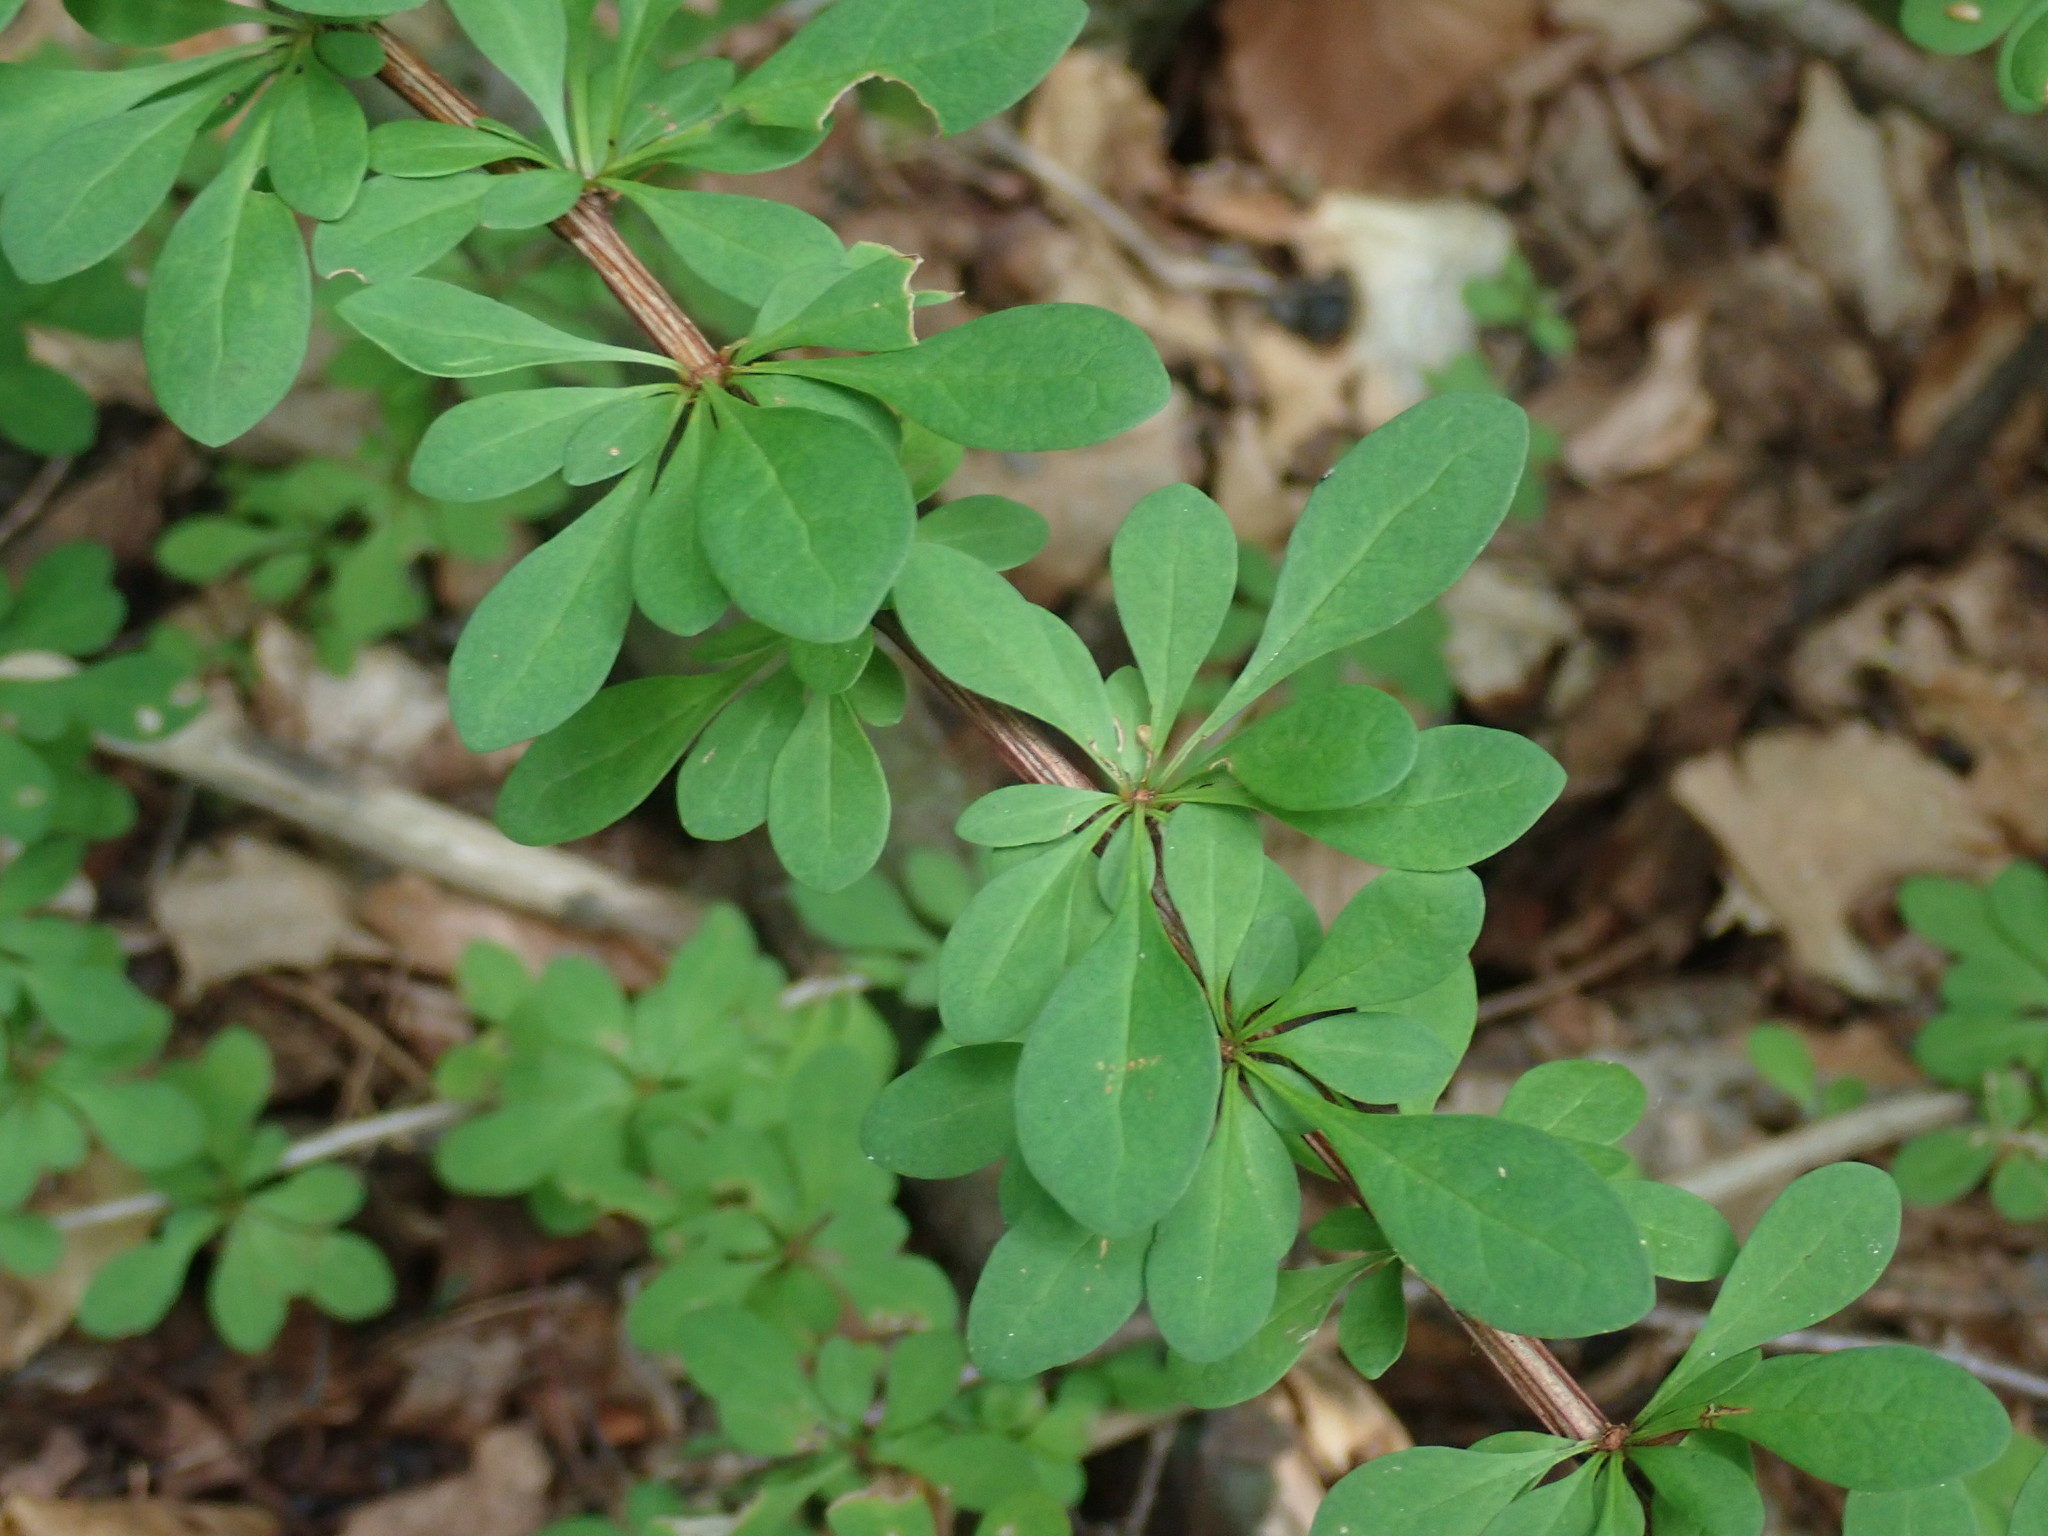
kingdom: Plantae
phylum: Tracheophyta
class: Magnoliopsida
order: Ranunculales
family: Berberidaceae
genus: Berberis
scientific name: Berberis thunbergii
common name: Japanese barberry
